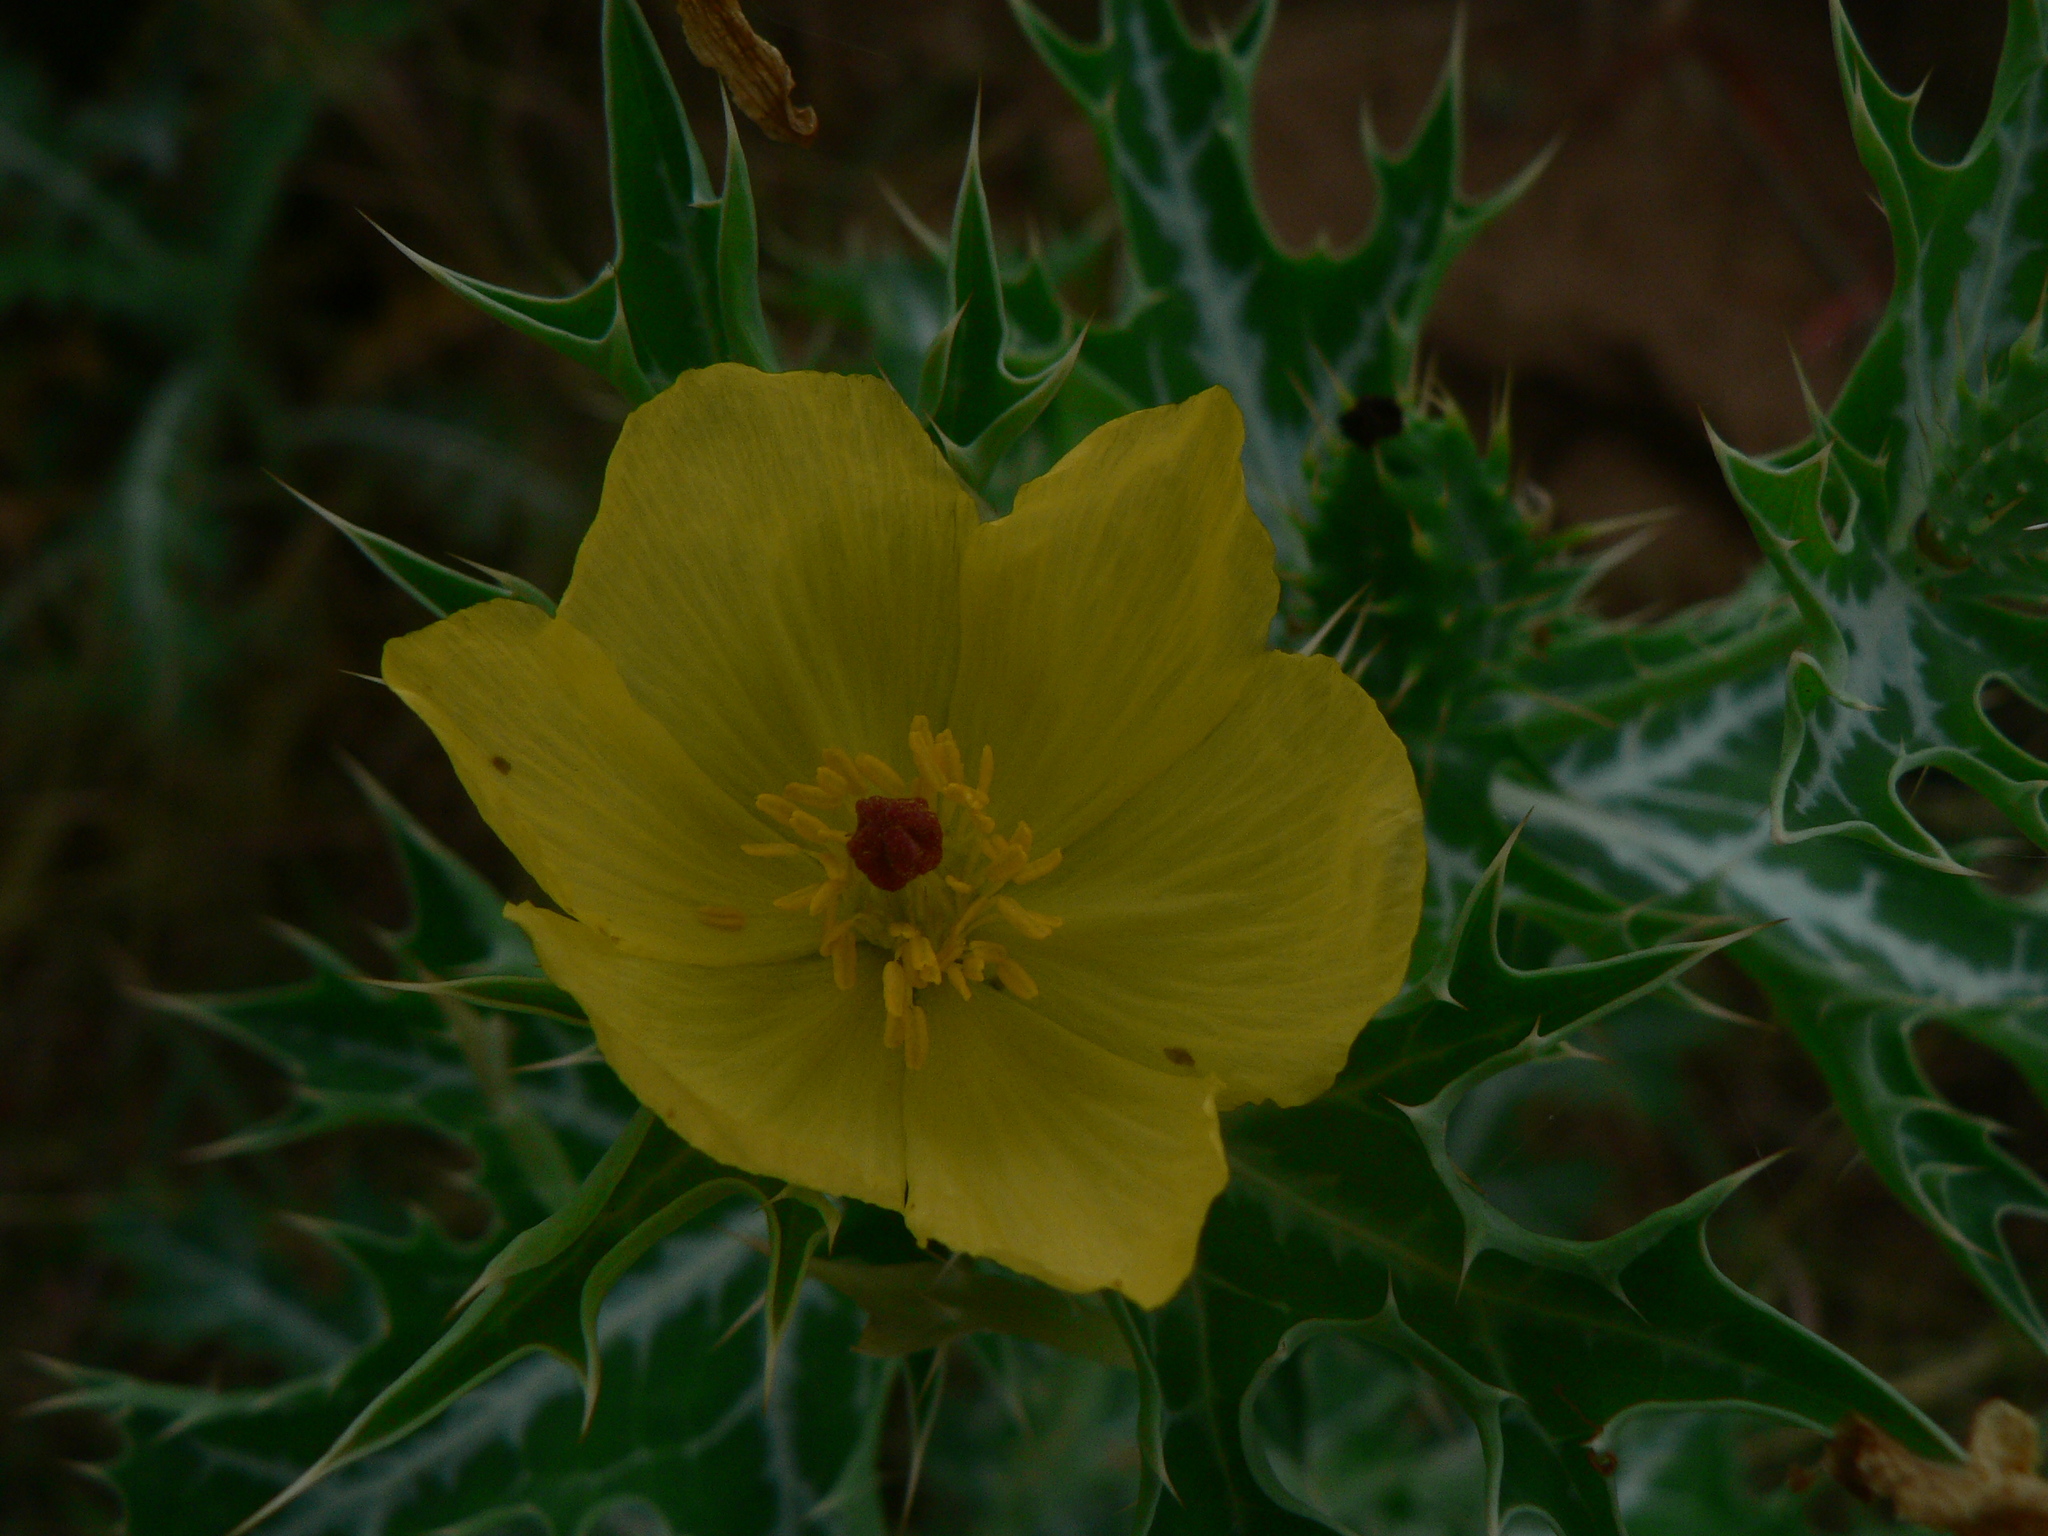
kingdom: Plantae
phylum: Tracheophyta
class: Magnoliopsida
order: Ranunculales
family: Papaveraceae
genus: Argemone
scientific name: Argemone mexicana
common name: Mexican poppy
